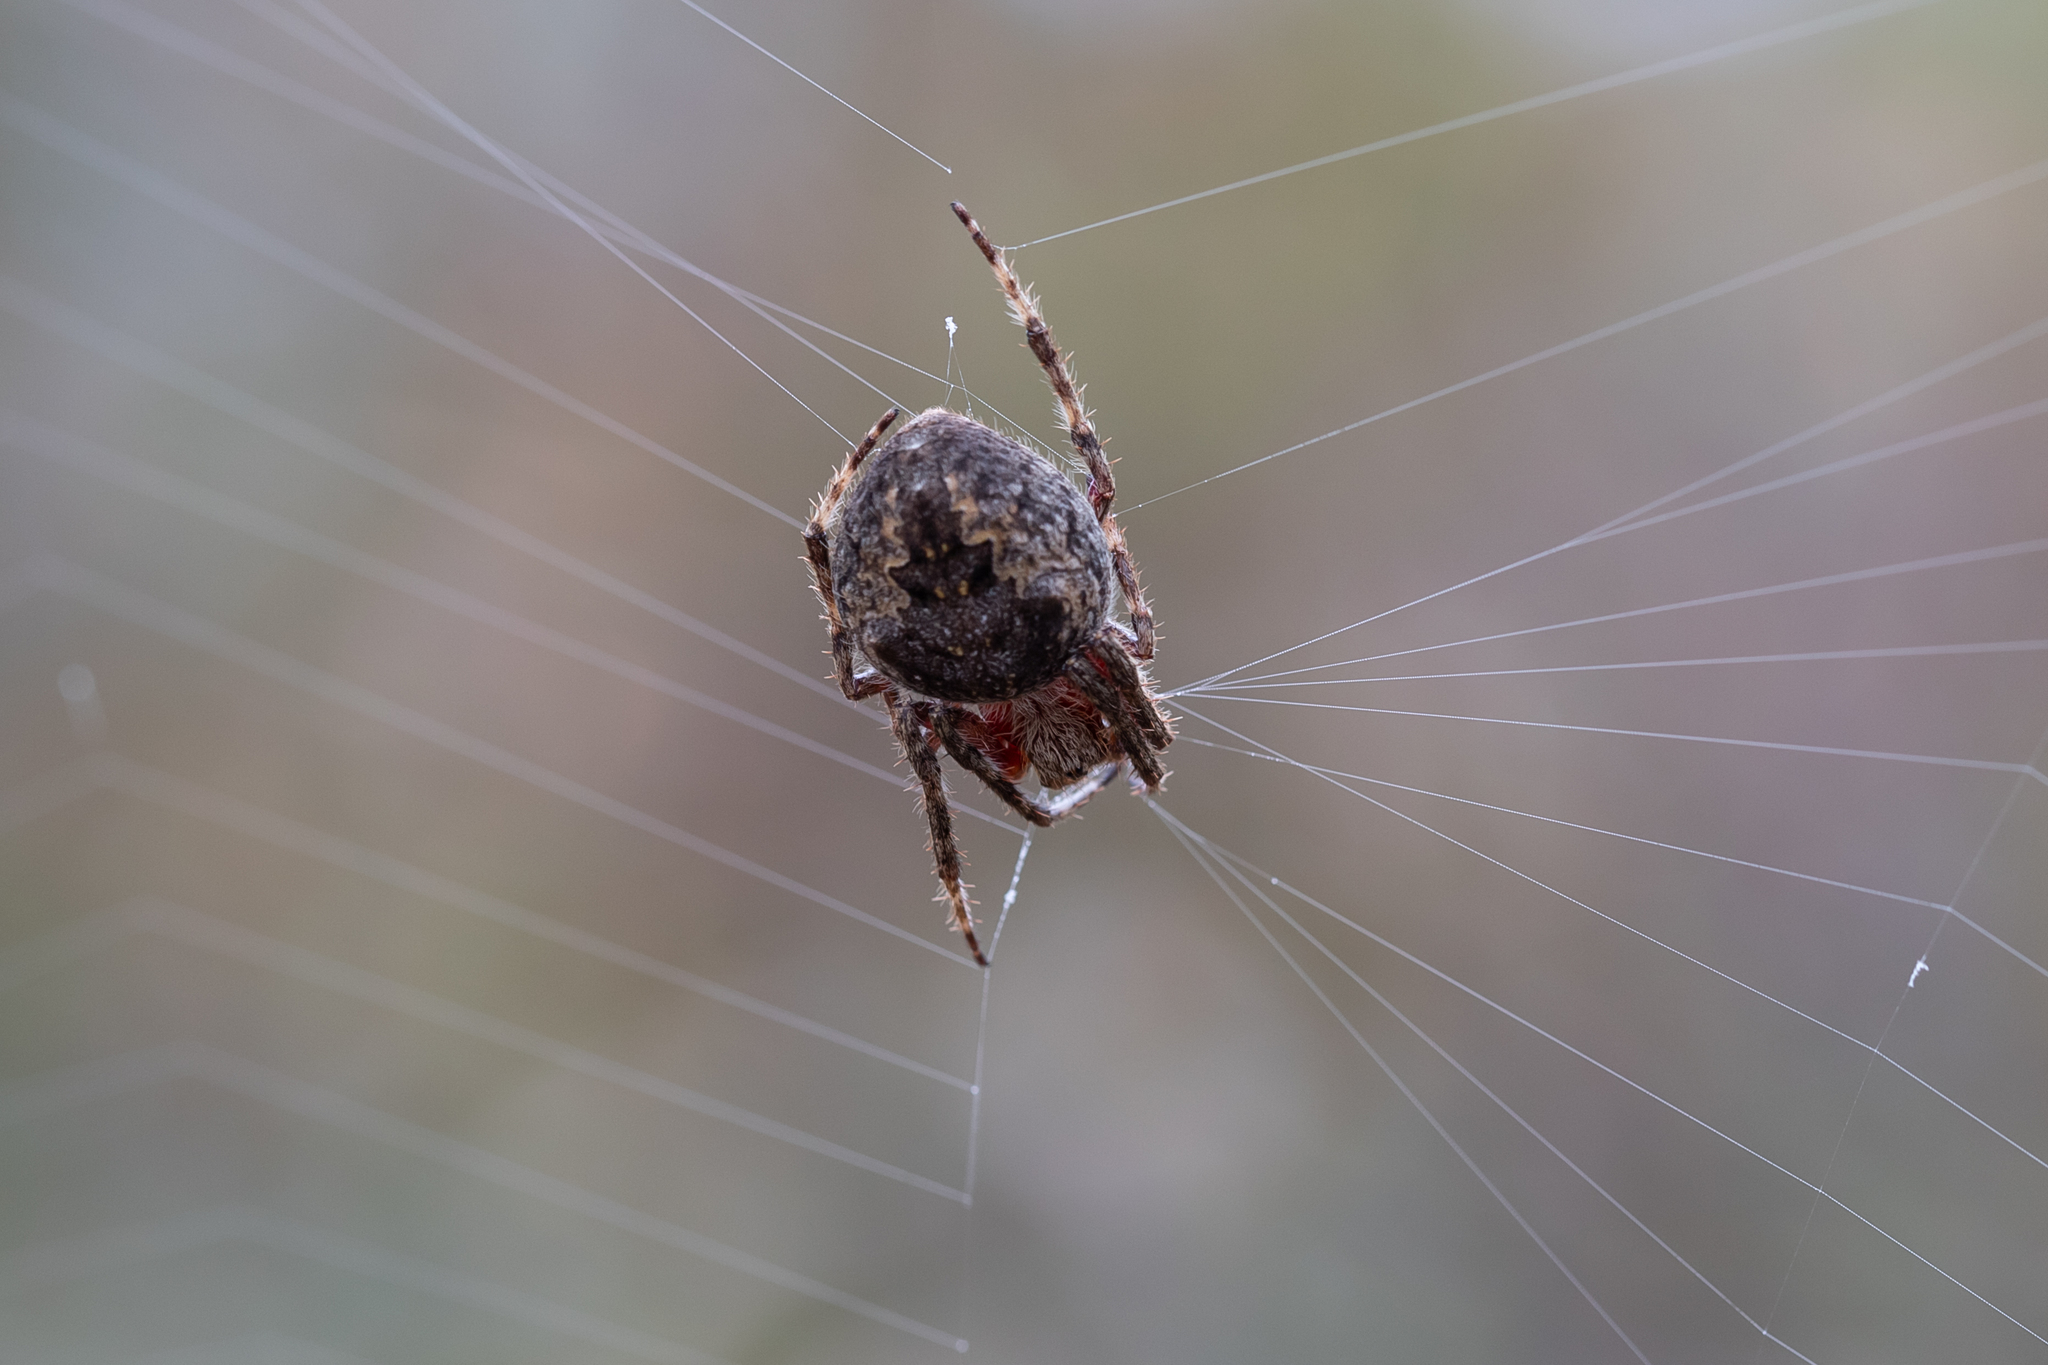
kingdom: Animalia
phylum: Arthropoda
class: Arachnida
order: Araneae
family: Araneidae
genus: Hortophora
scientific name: Hortophora biapicata
